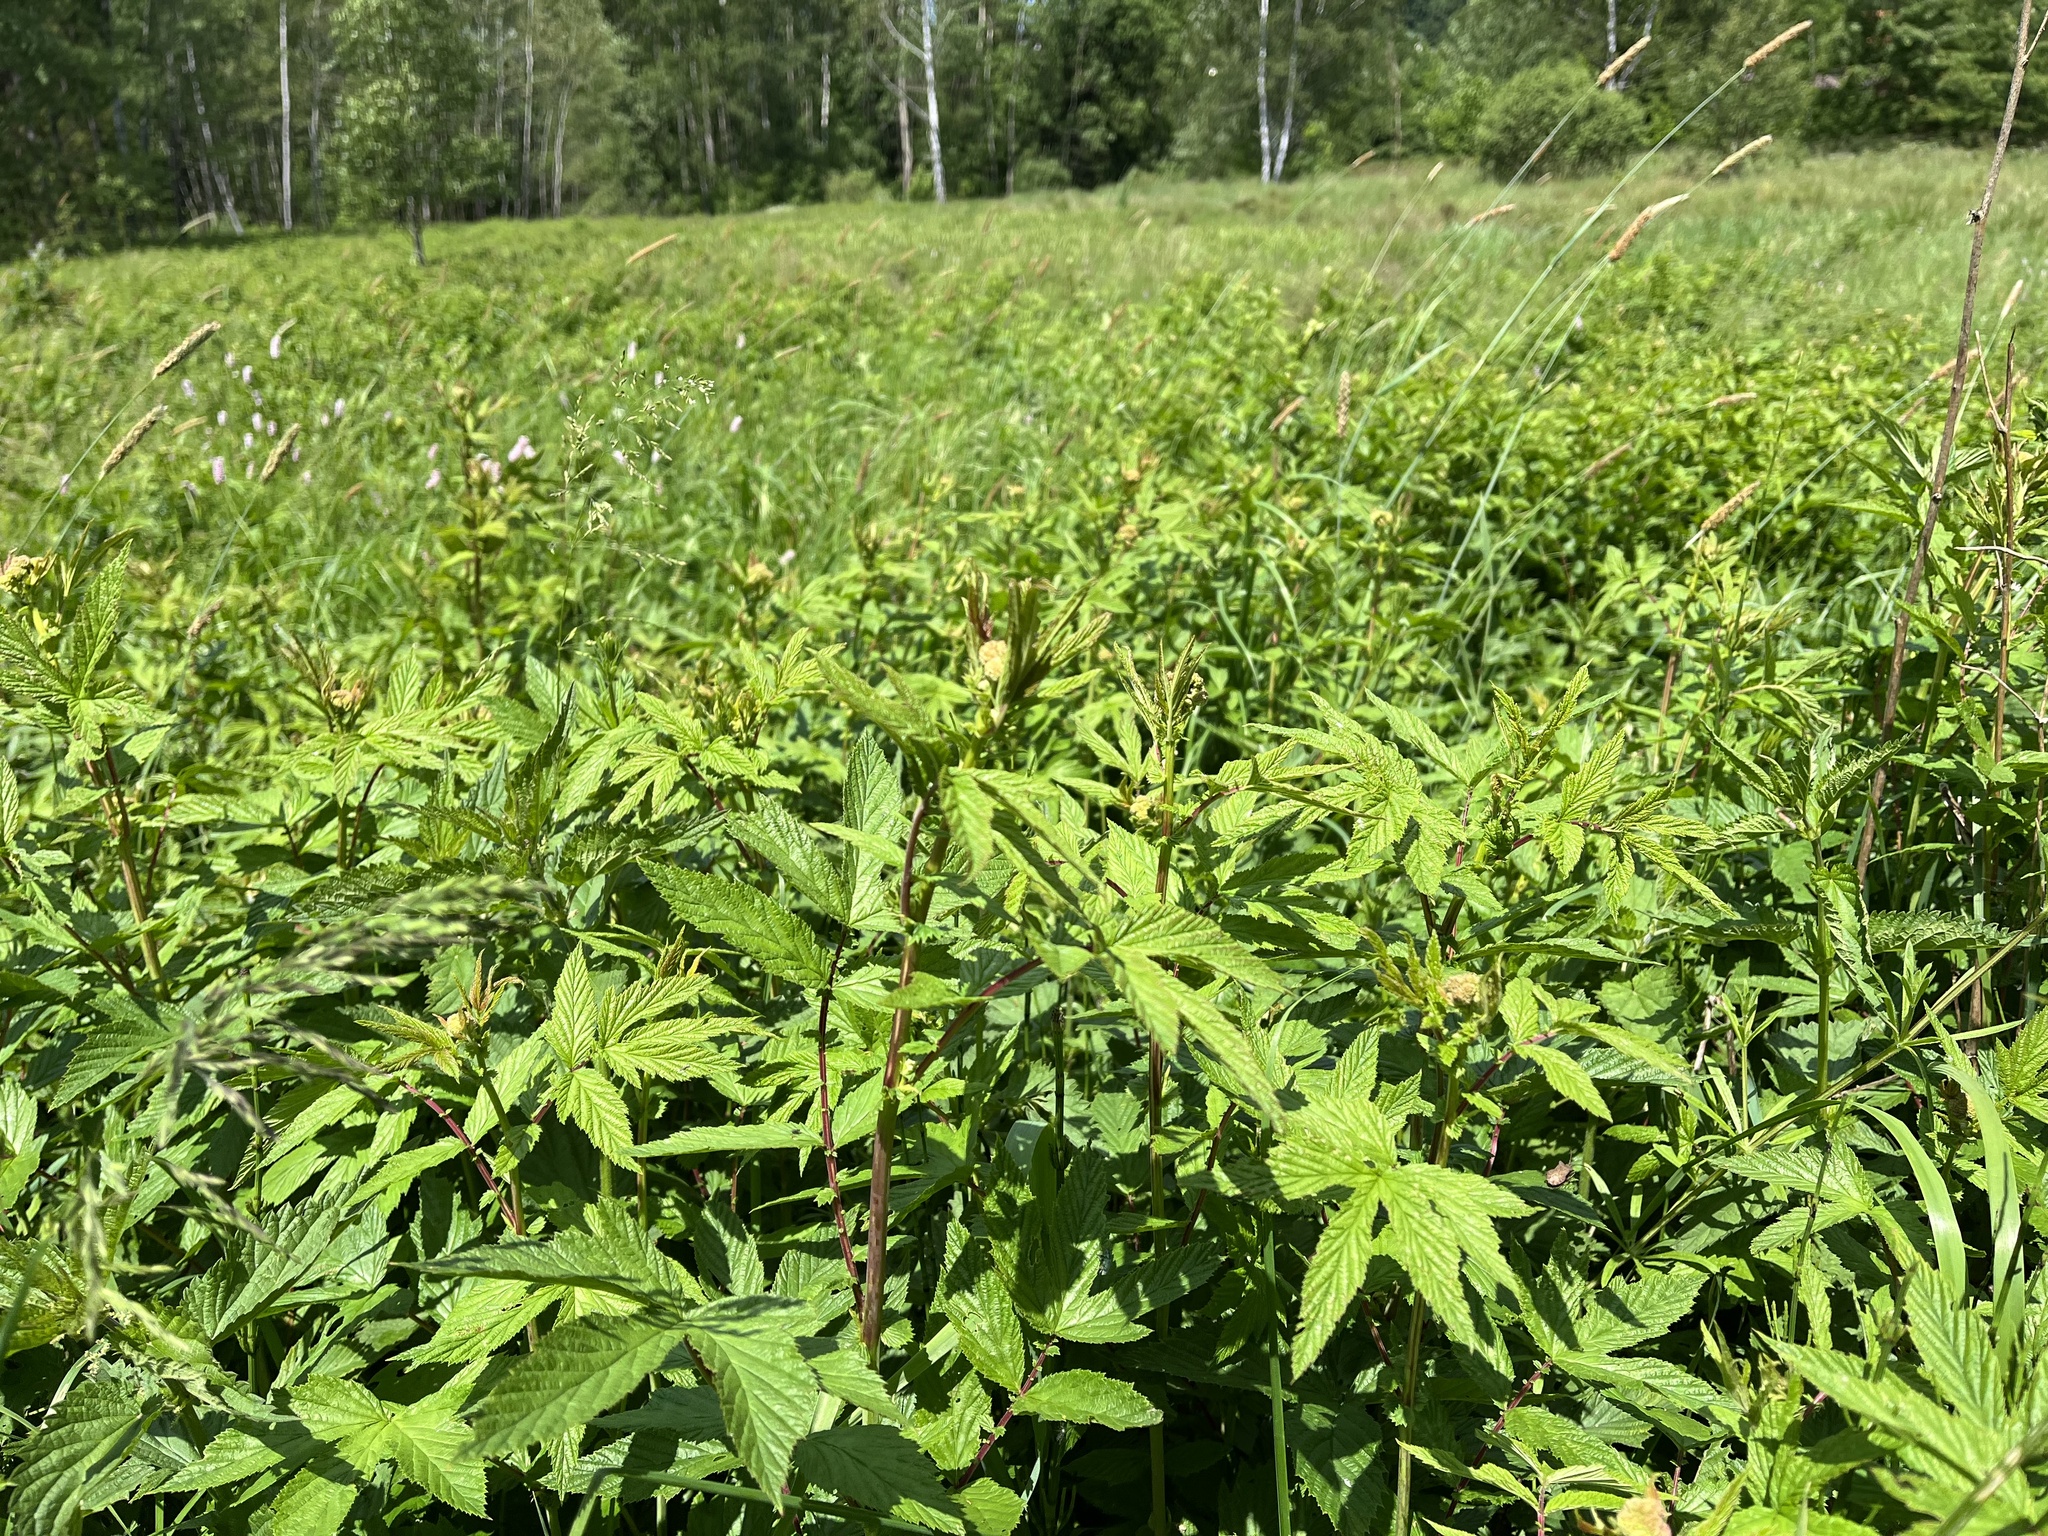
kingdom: Plantae
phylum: Tracheophyta
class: Magnoliopsida
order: Rosales
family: Rosaceae
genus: Filipendula
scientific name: Filipendula ulmaria
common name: Meadowsweet
